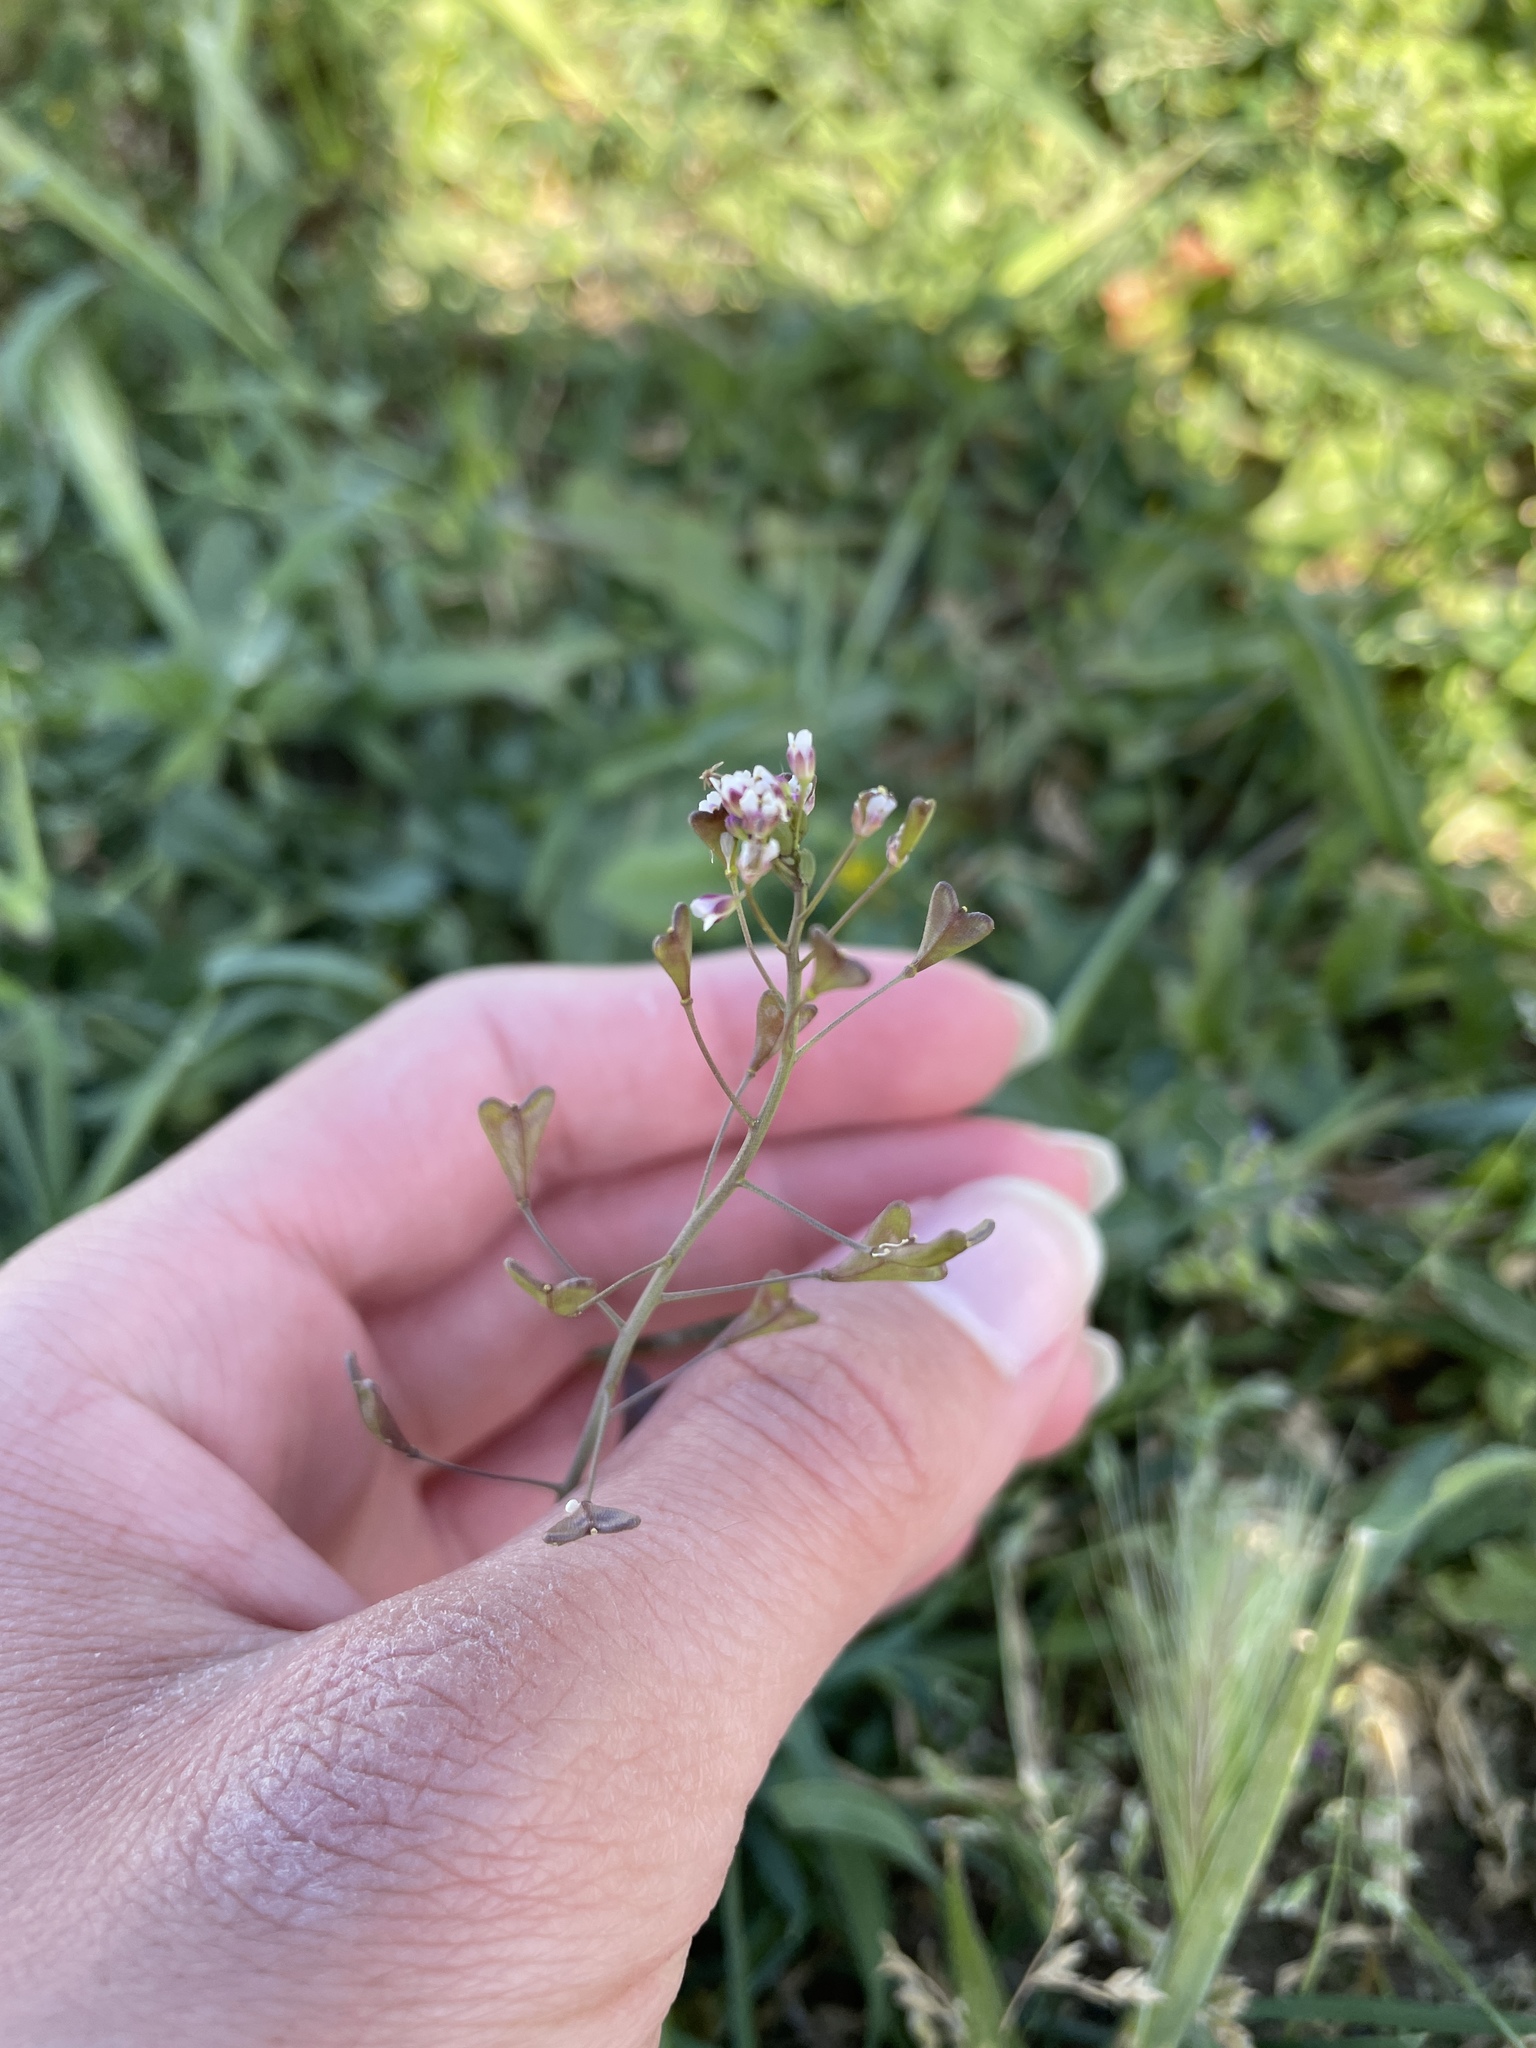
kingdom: Plantae
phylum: Tracheophyta
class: Magnoliopsida
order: Brassicales
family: Brassicaceae
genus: Capsella
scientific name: Capsella bursa-pastoris
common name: Shepherd's purse
